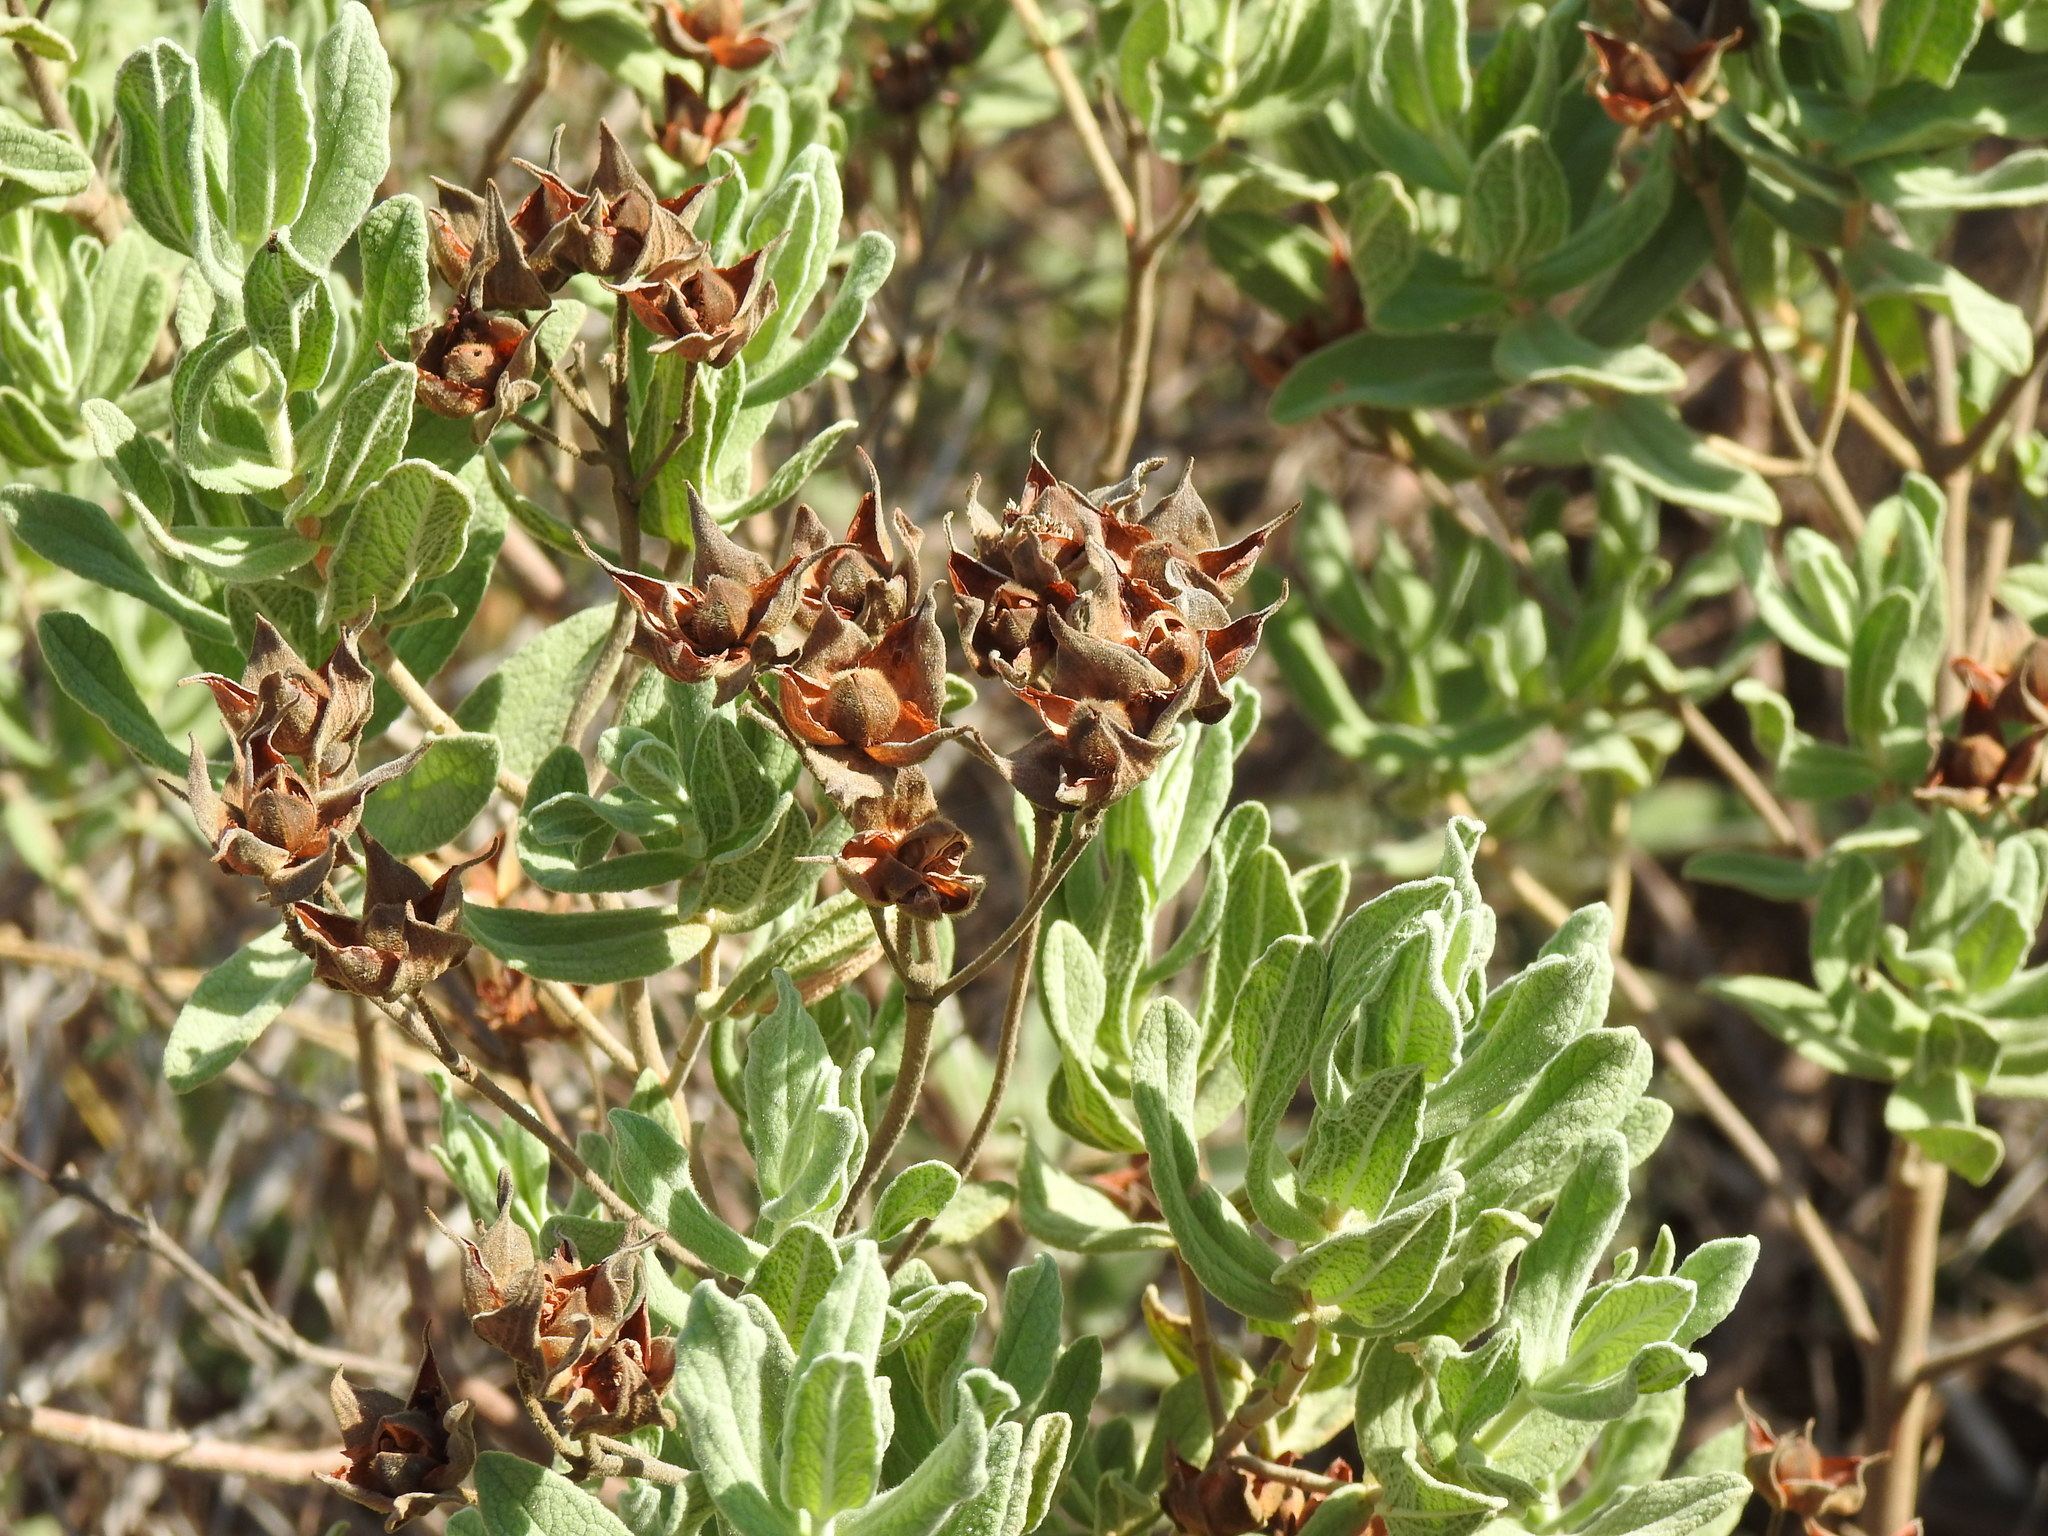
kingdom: Plantae
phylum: Tracheophyta
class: Magnoliopsida
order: Malvales
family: Cistaceae
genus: Cistus
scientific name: Cistus albidus
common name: White-leaf rock-rose
